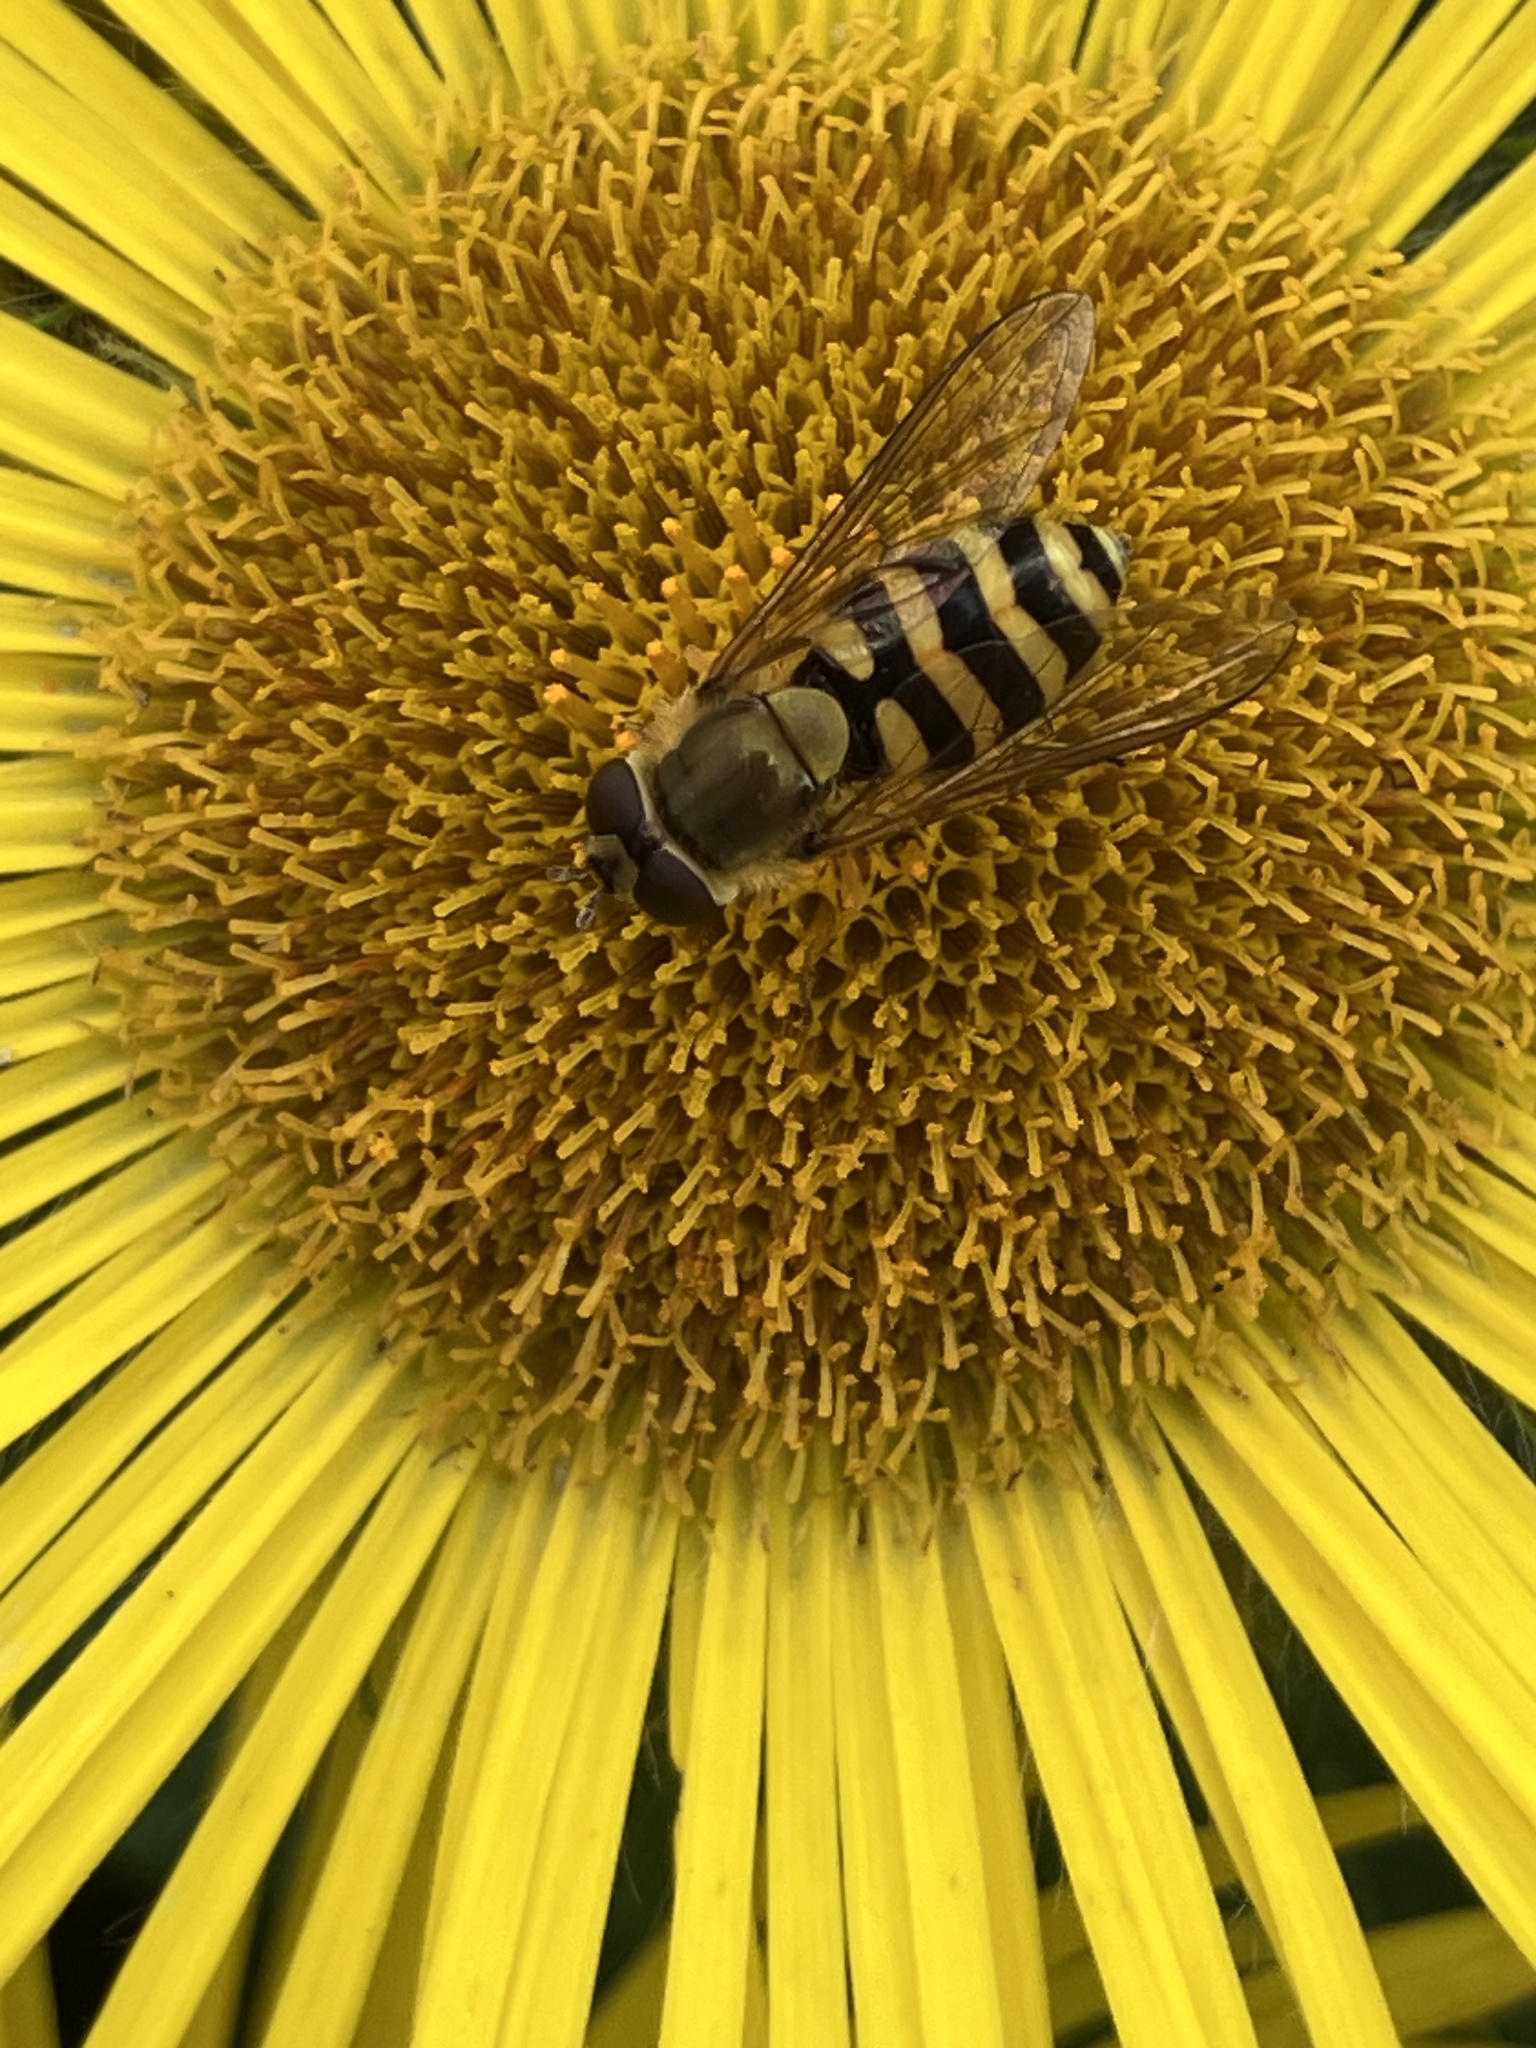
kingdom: Animalia
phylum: Arthropoda
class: Insecta
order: Diptera
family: Syrphidae
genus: Syrphus
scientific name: Syrphus
